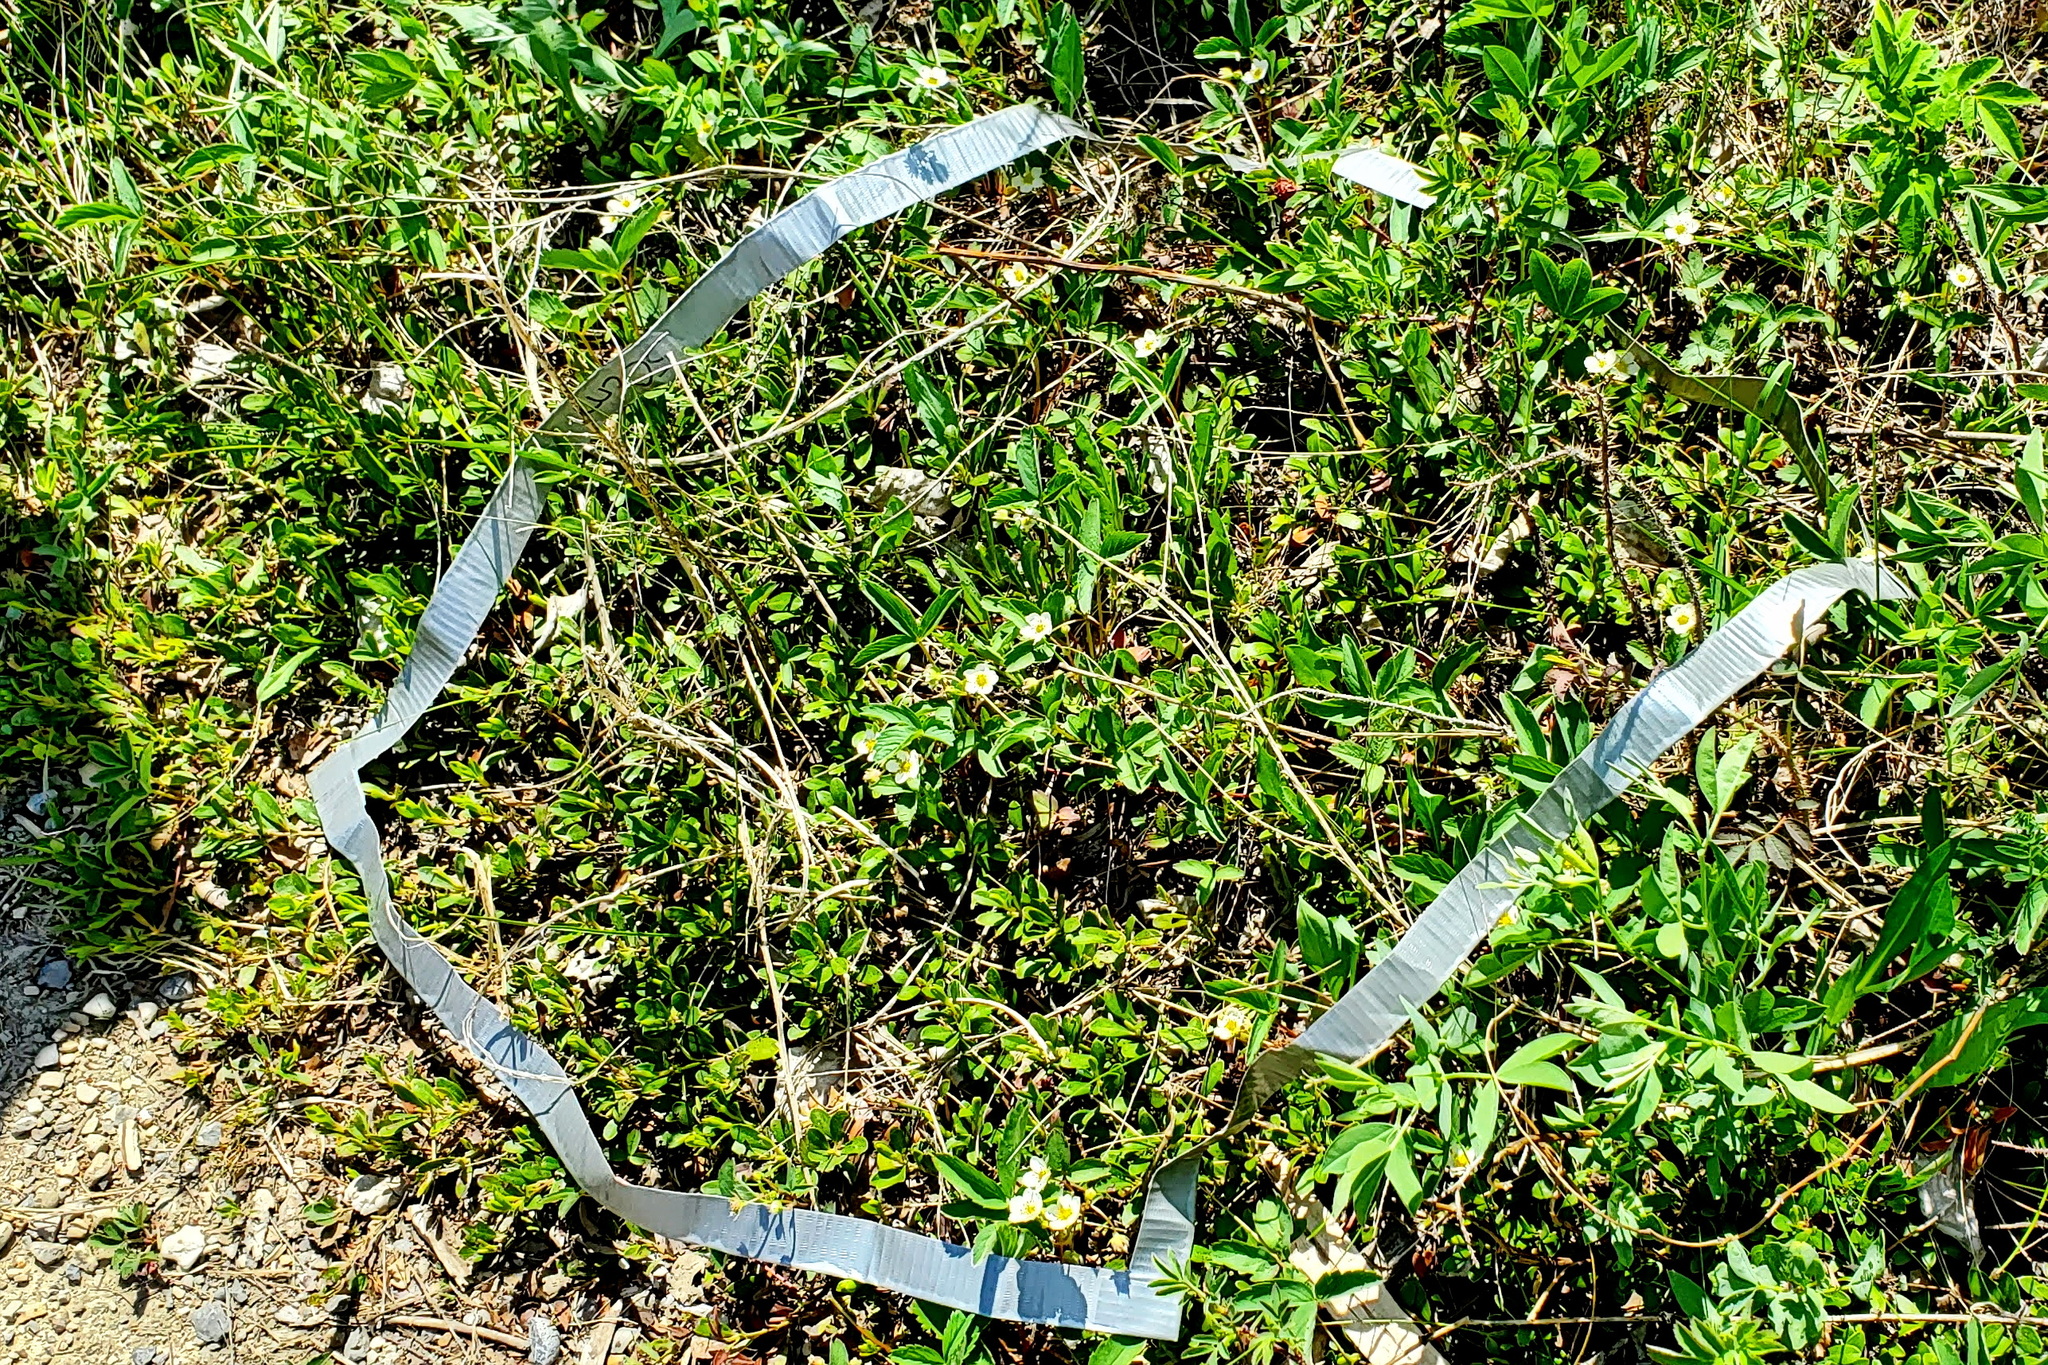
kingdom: Plantae
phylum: Tracheophyta
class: Magnoliopsida
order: Rosales
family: Rosaceae
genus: Fragaria
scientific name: Fragaria virginiana
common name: Thickleaved wild strawberry
